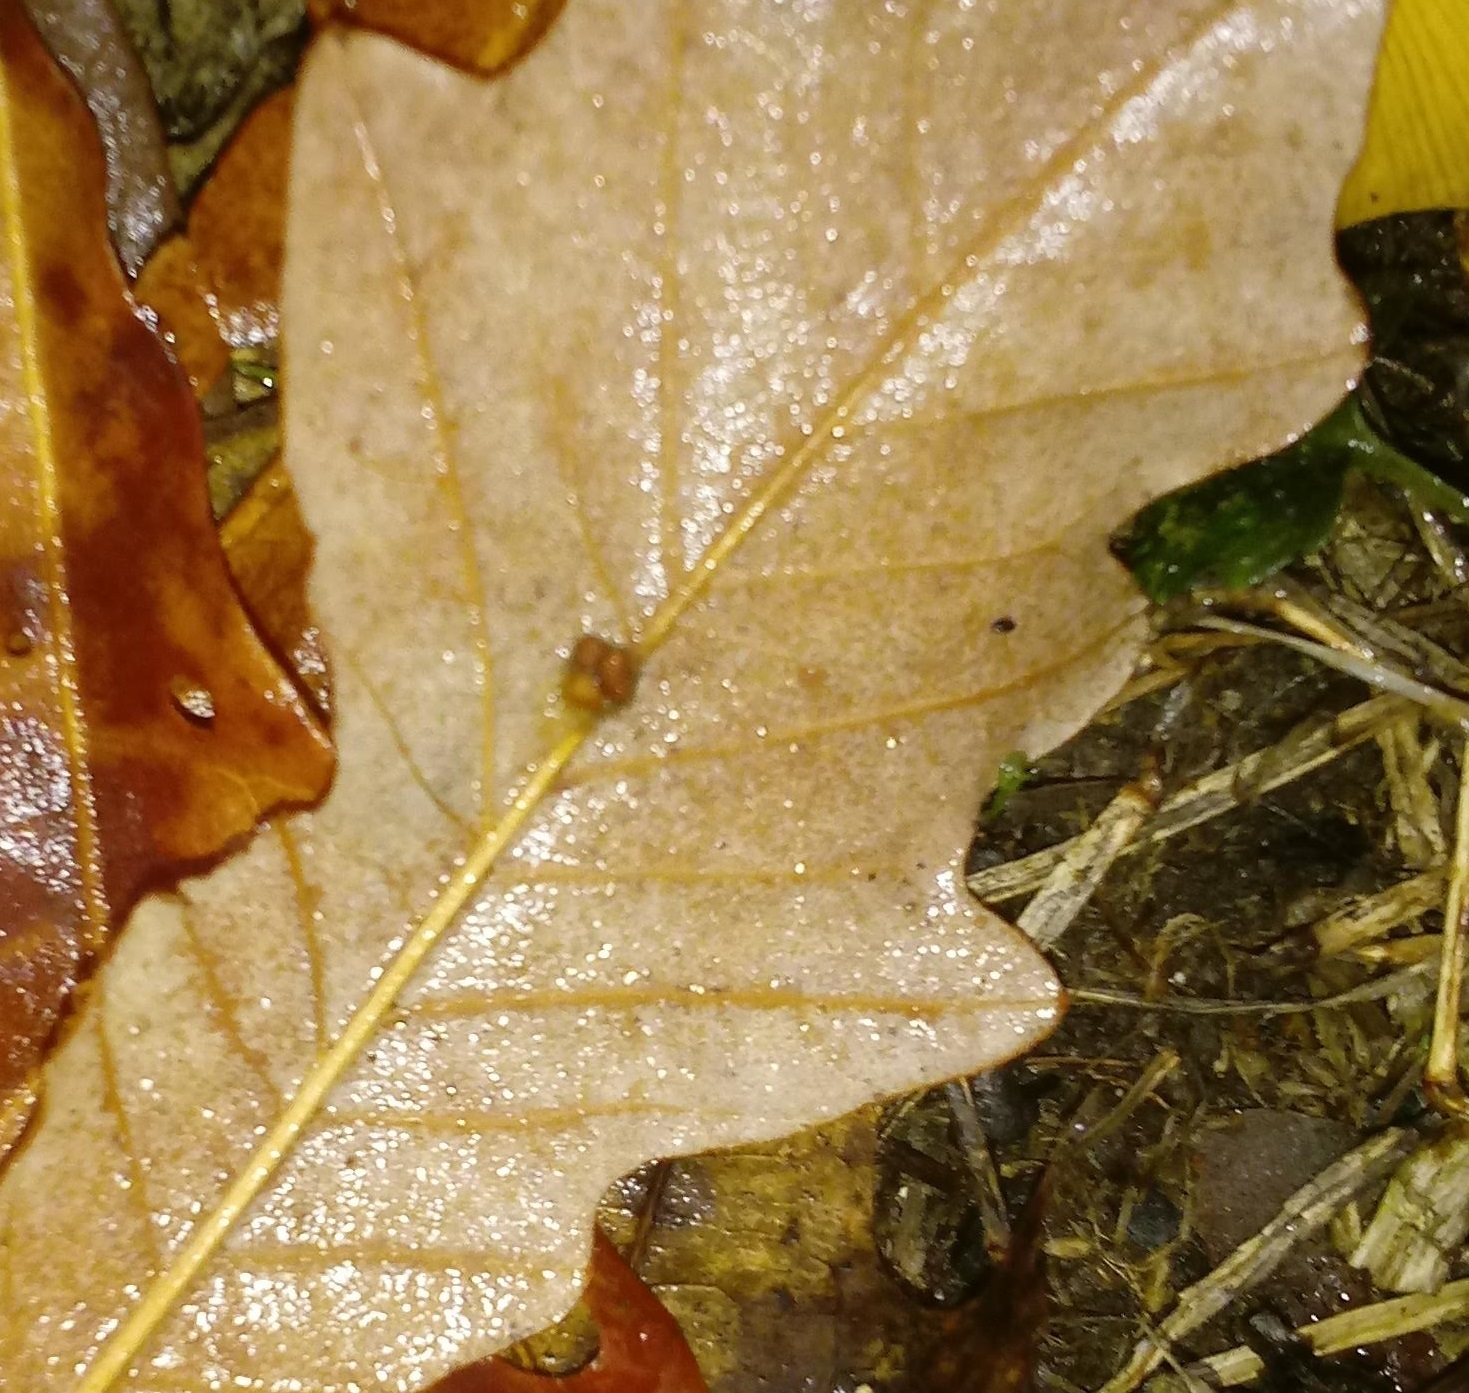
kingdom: Animalia
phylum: Arthropoda
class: Insecta
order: Hymenoptera
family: Cynipidae
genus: Andricus
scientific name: Andricus Druon ignotum
